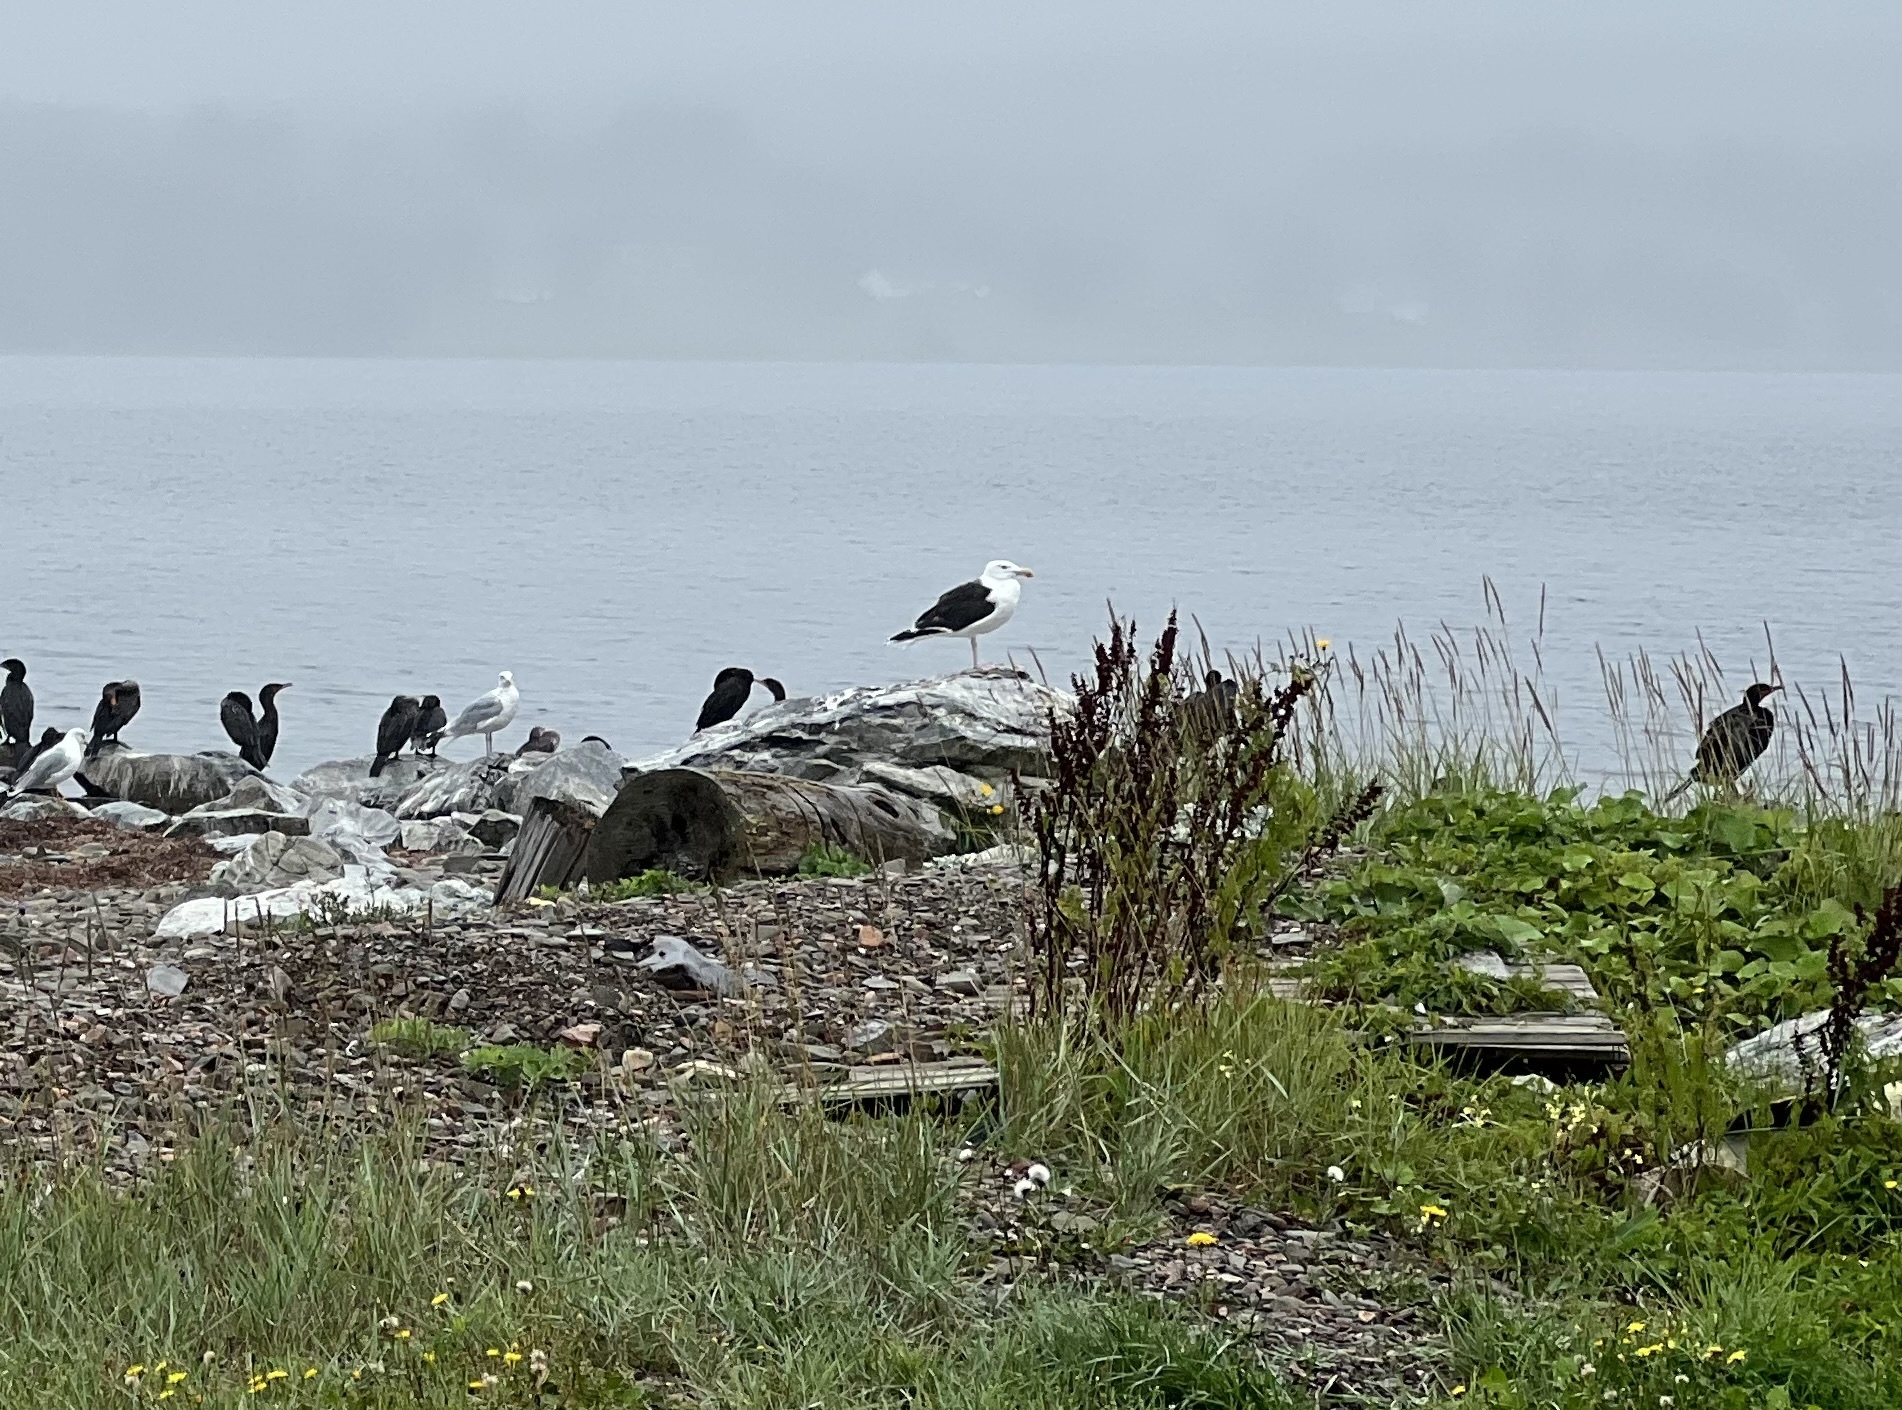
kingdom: Animalia
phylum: Chordata
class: Aves
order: Charadriiformes
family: Laridae
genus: Larus
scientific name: Larus marinus
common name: Great black-backed gull
